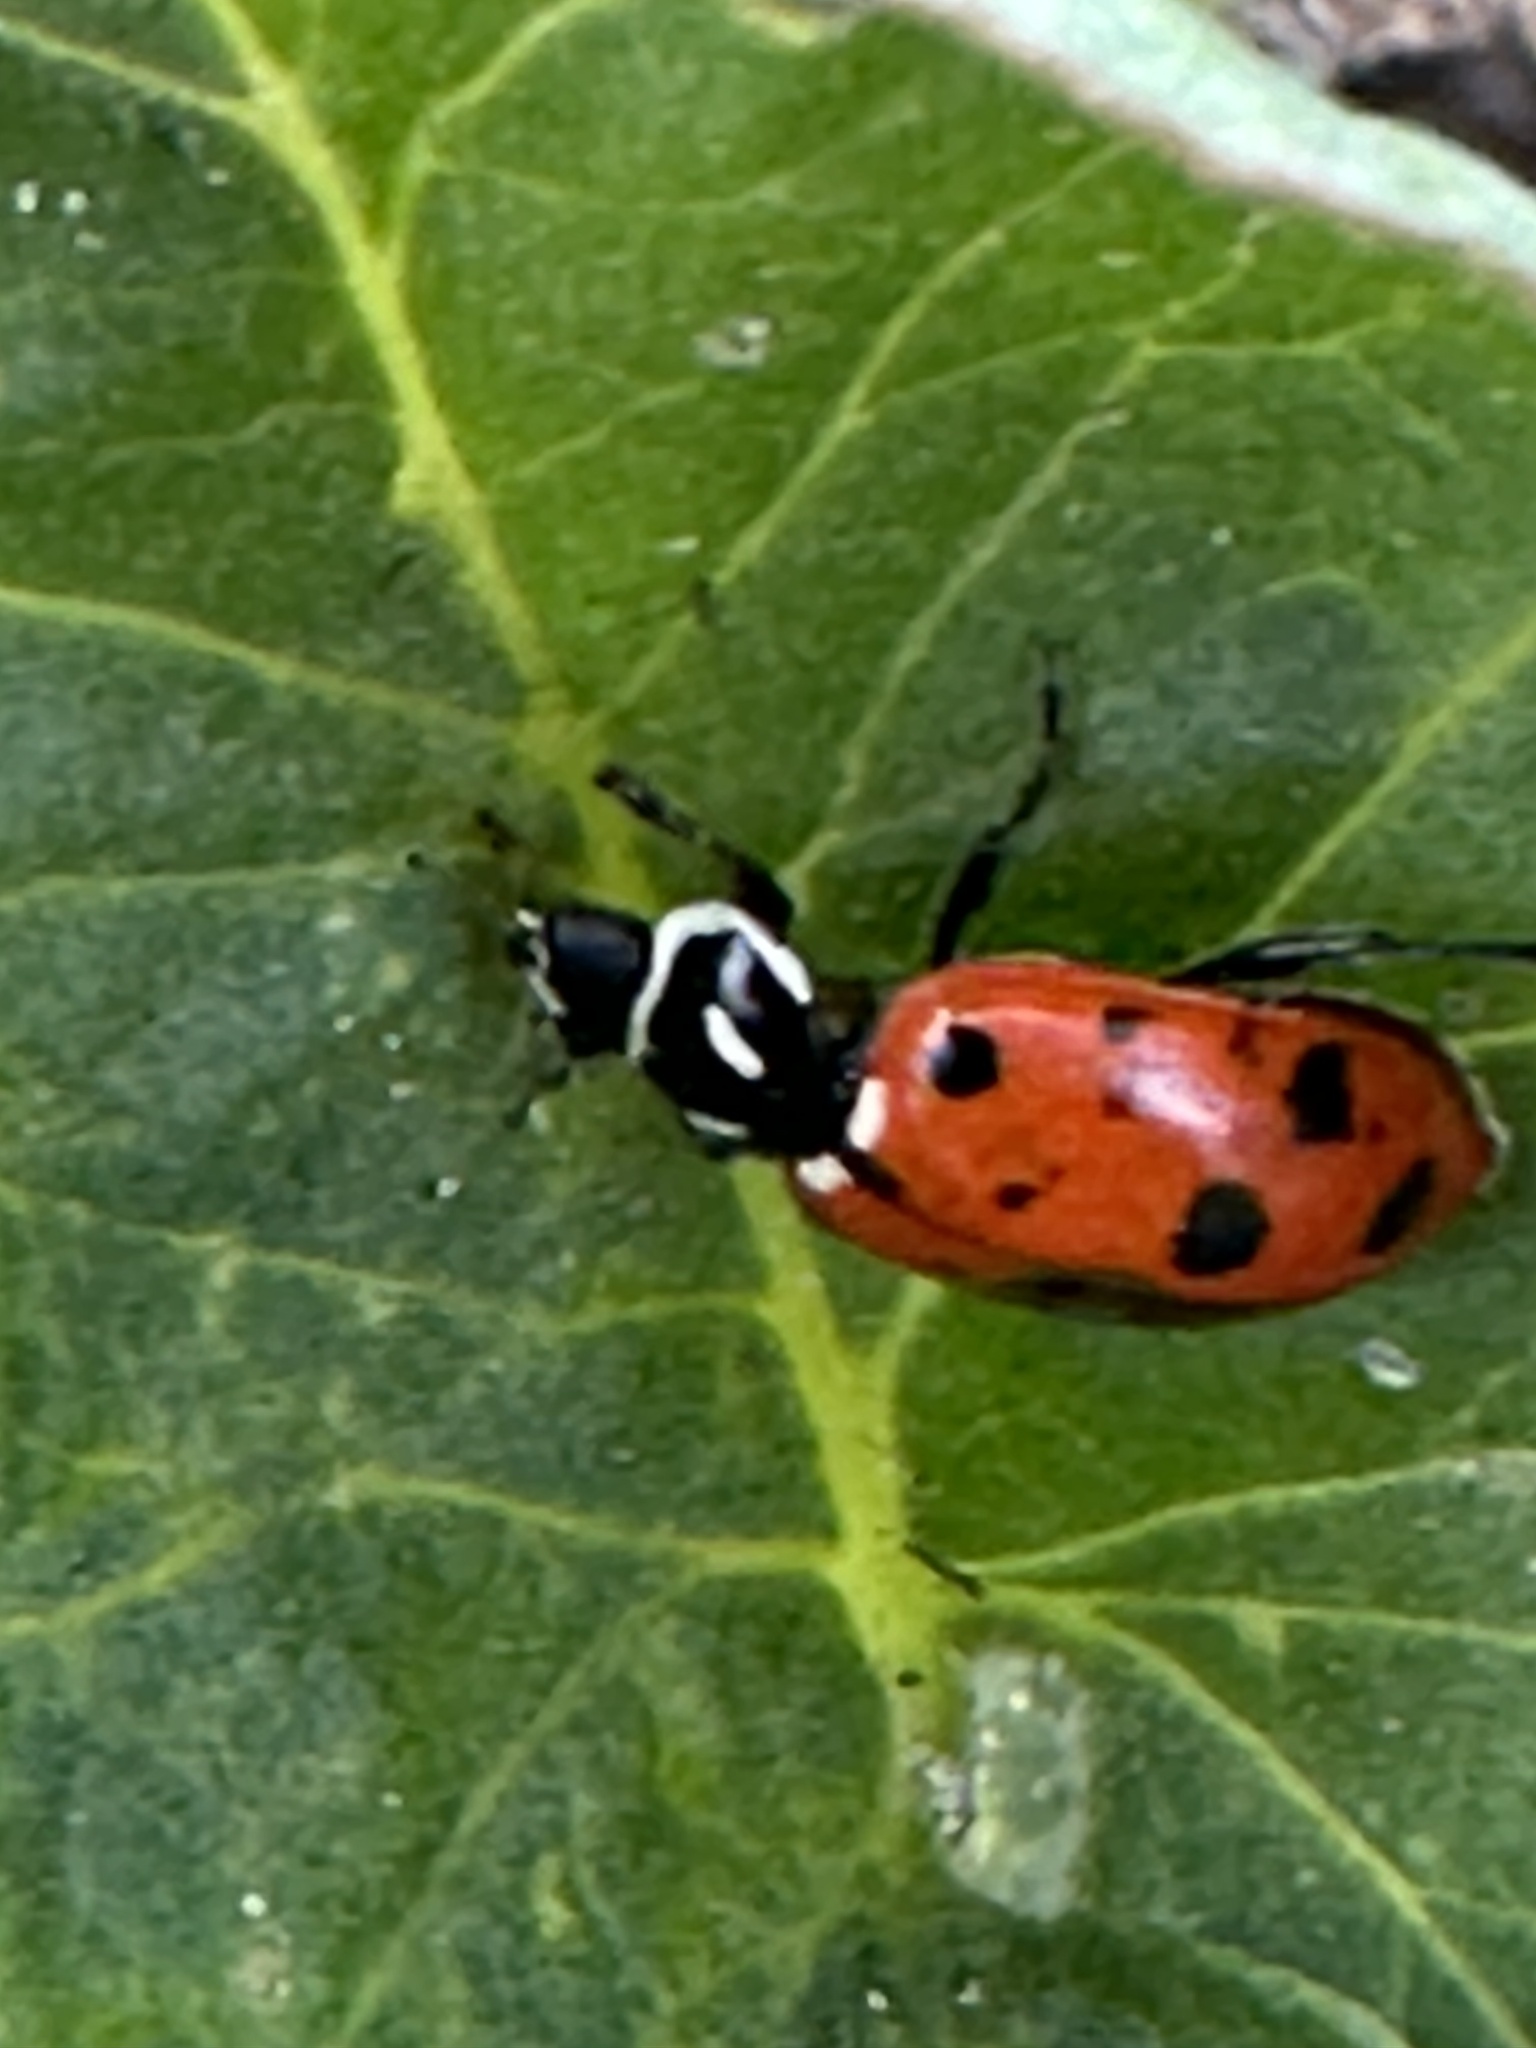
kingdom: Animalia
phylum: Arthropoda
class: Insecta
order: Coleoptera
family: Coccinellidae
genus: Hippodamia
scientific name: Hippodamia convergens
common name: Convergent lady beetle
